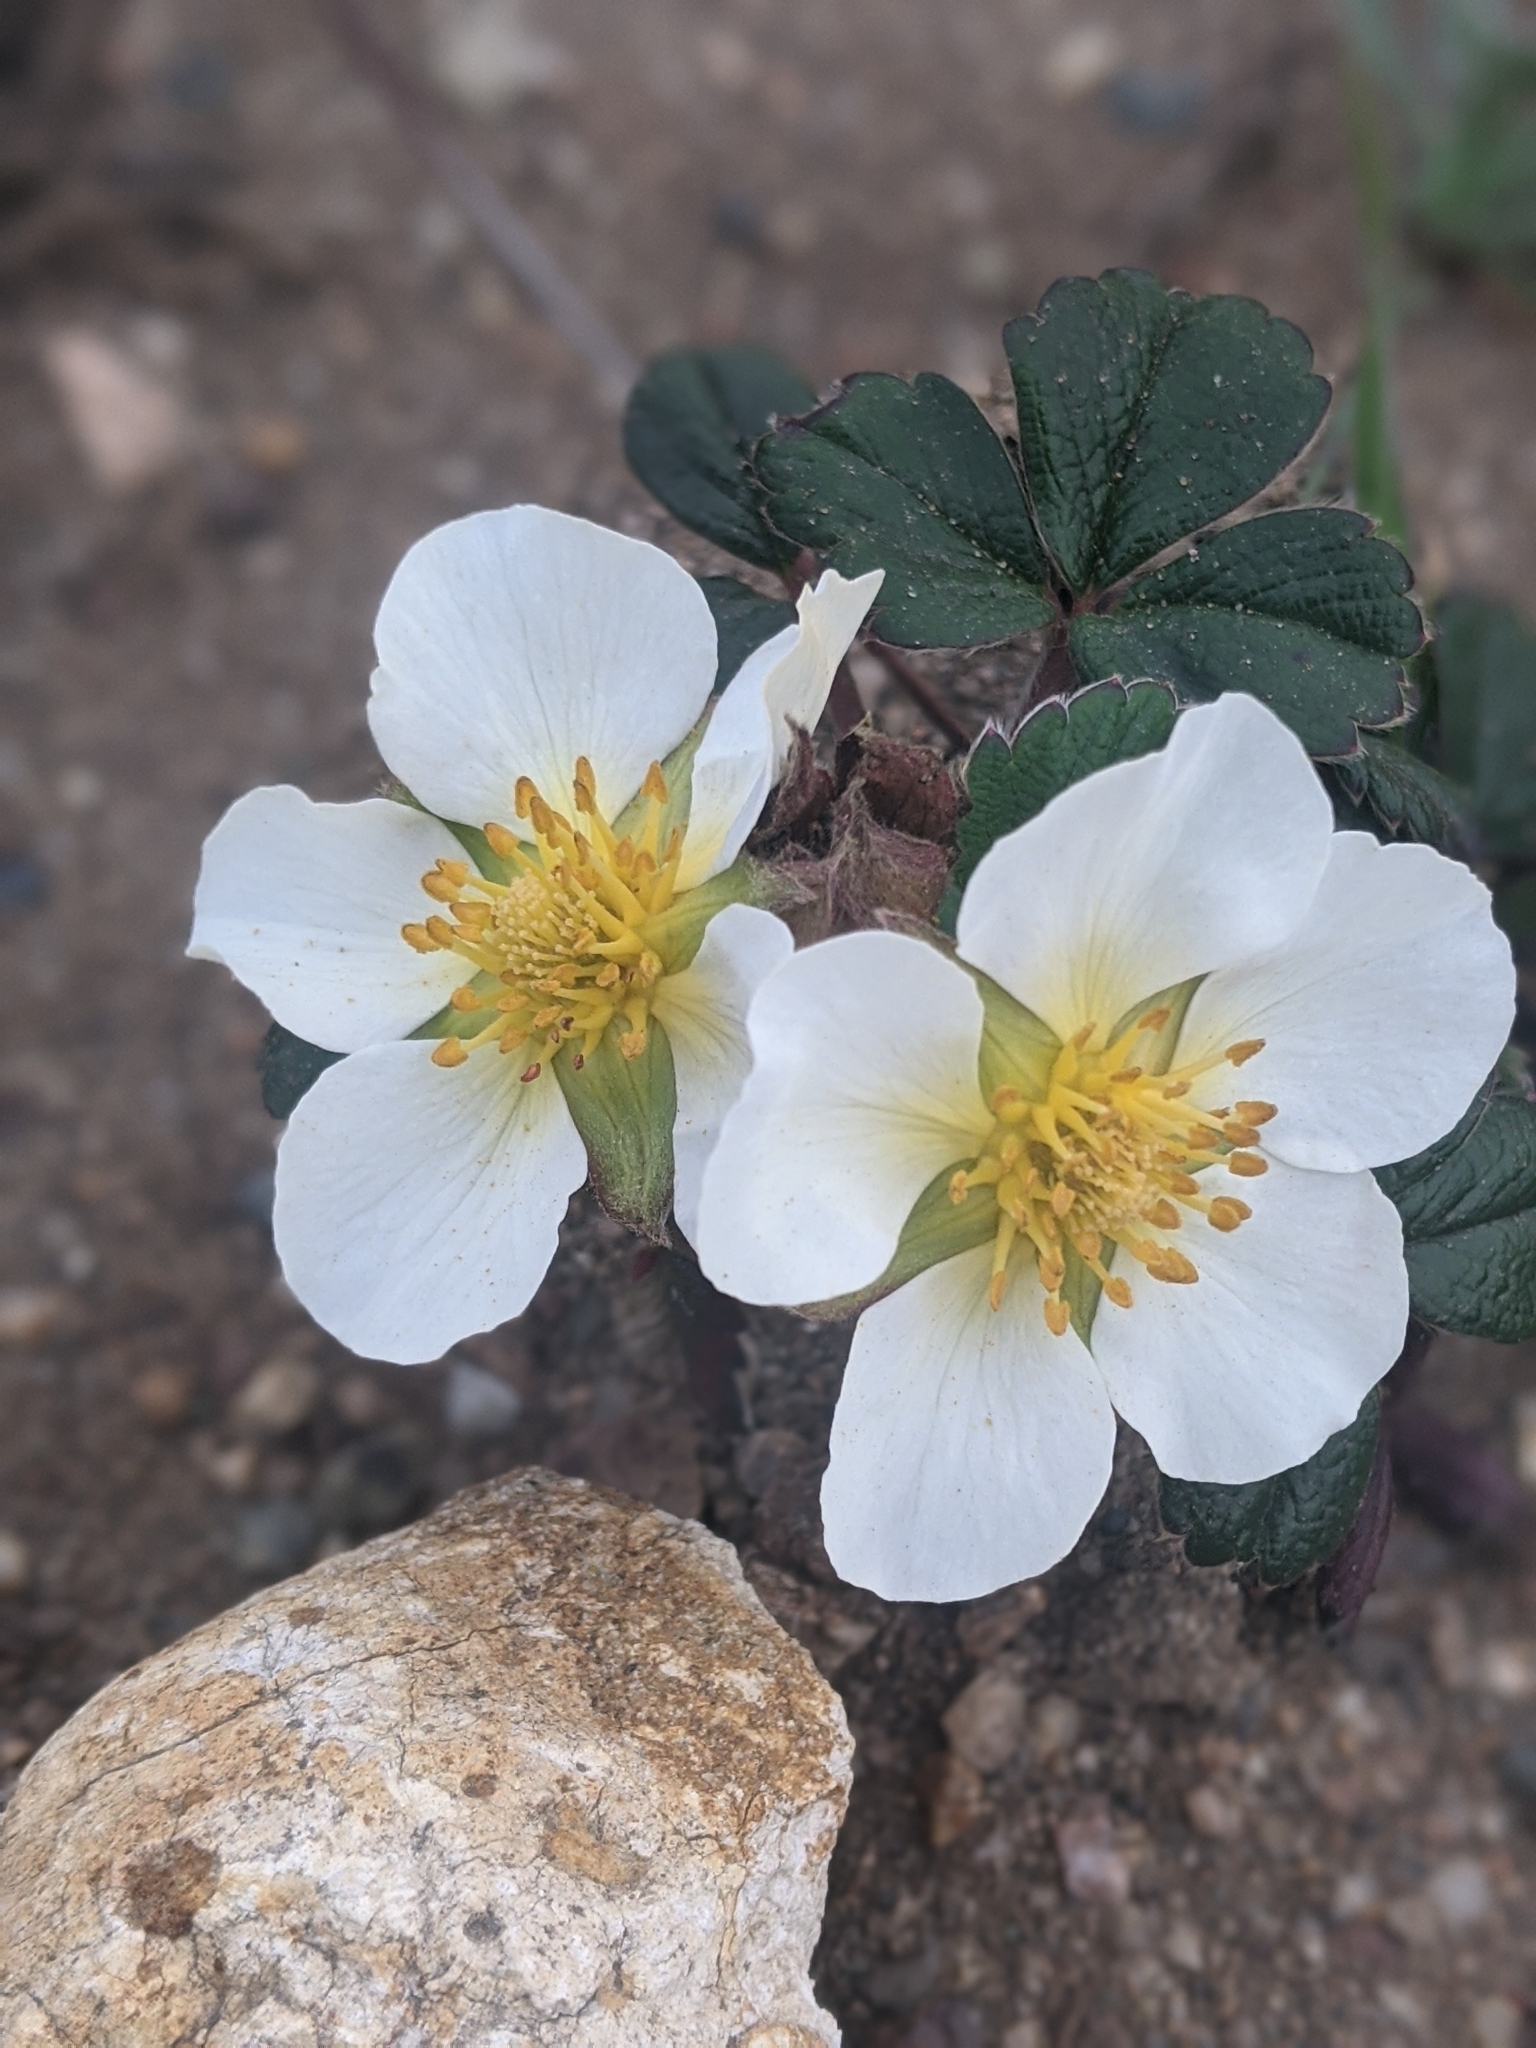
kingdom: Plantae
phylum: Tracheophyta
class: Magnoliopsida
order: Rosales
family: Rosaceae
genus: Fragaria
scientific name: Fragaria chiloensis
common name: Beach strawberry
